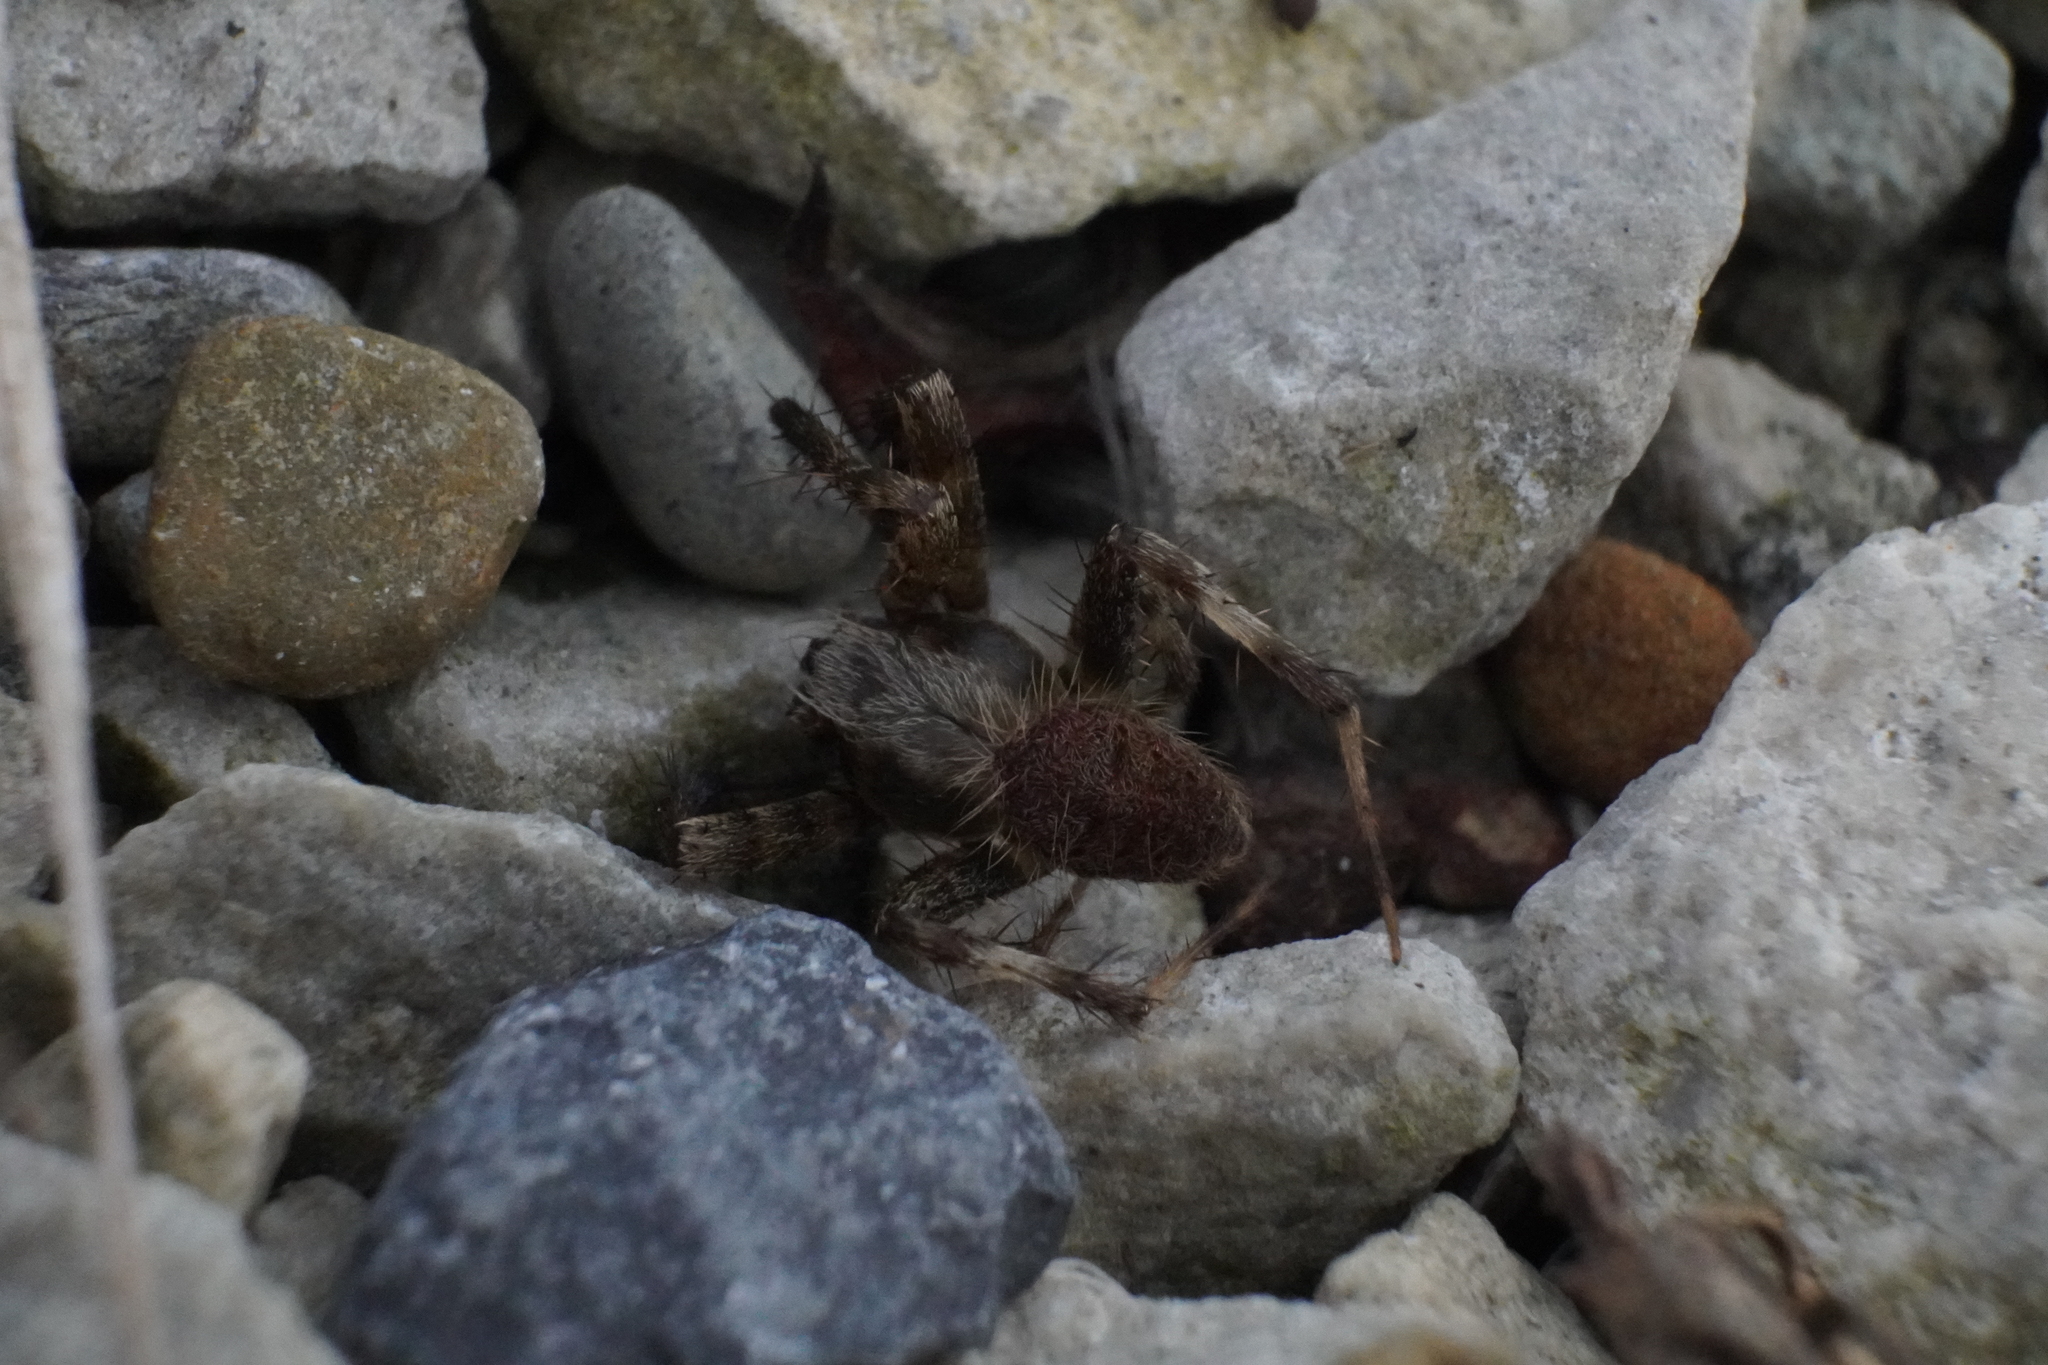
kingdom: Animalia
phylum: Arthropoda
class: Arachnida
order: Araneae
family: Araneidae
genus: Neoscona
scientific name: Neoscona crucifera
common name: Spotted orbweaver
